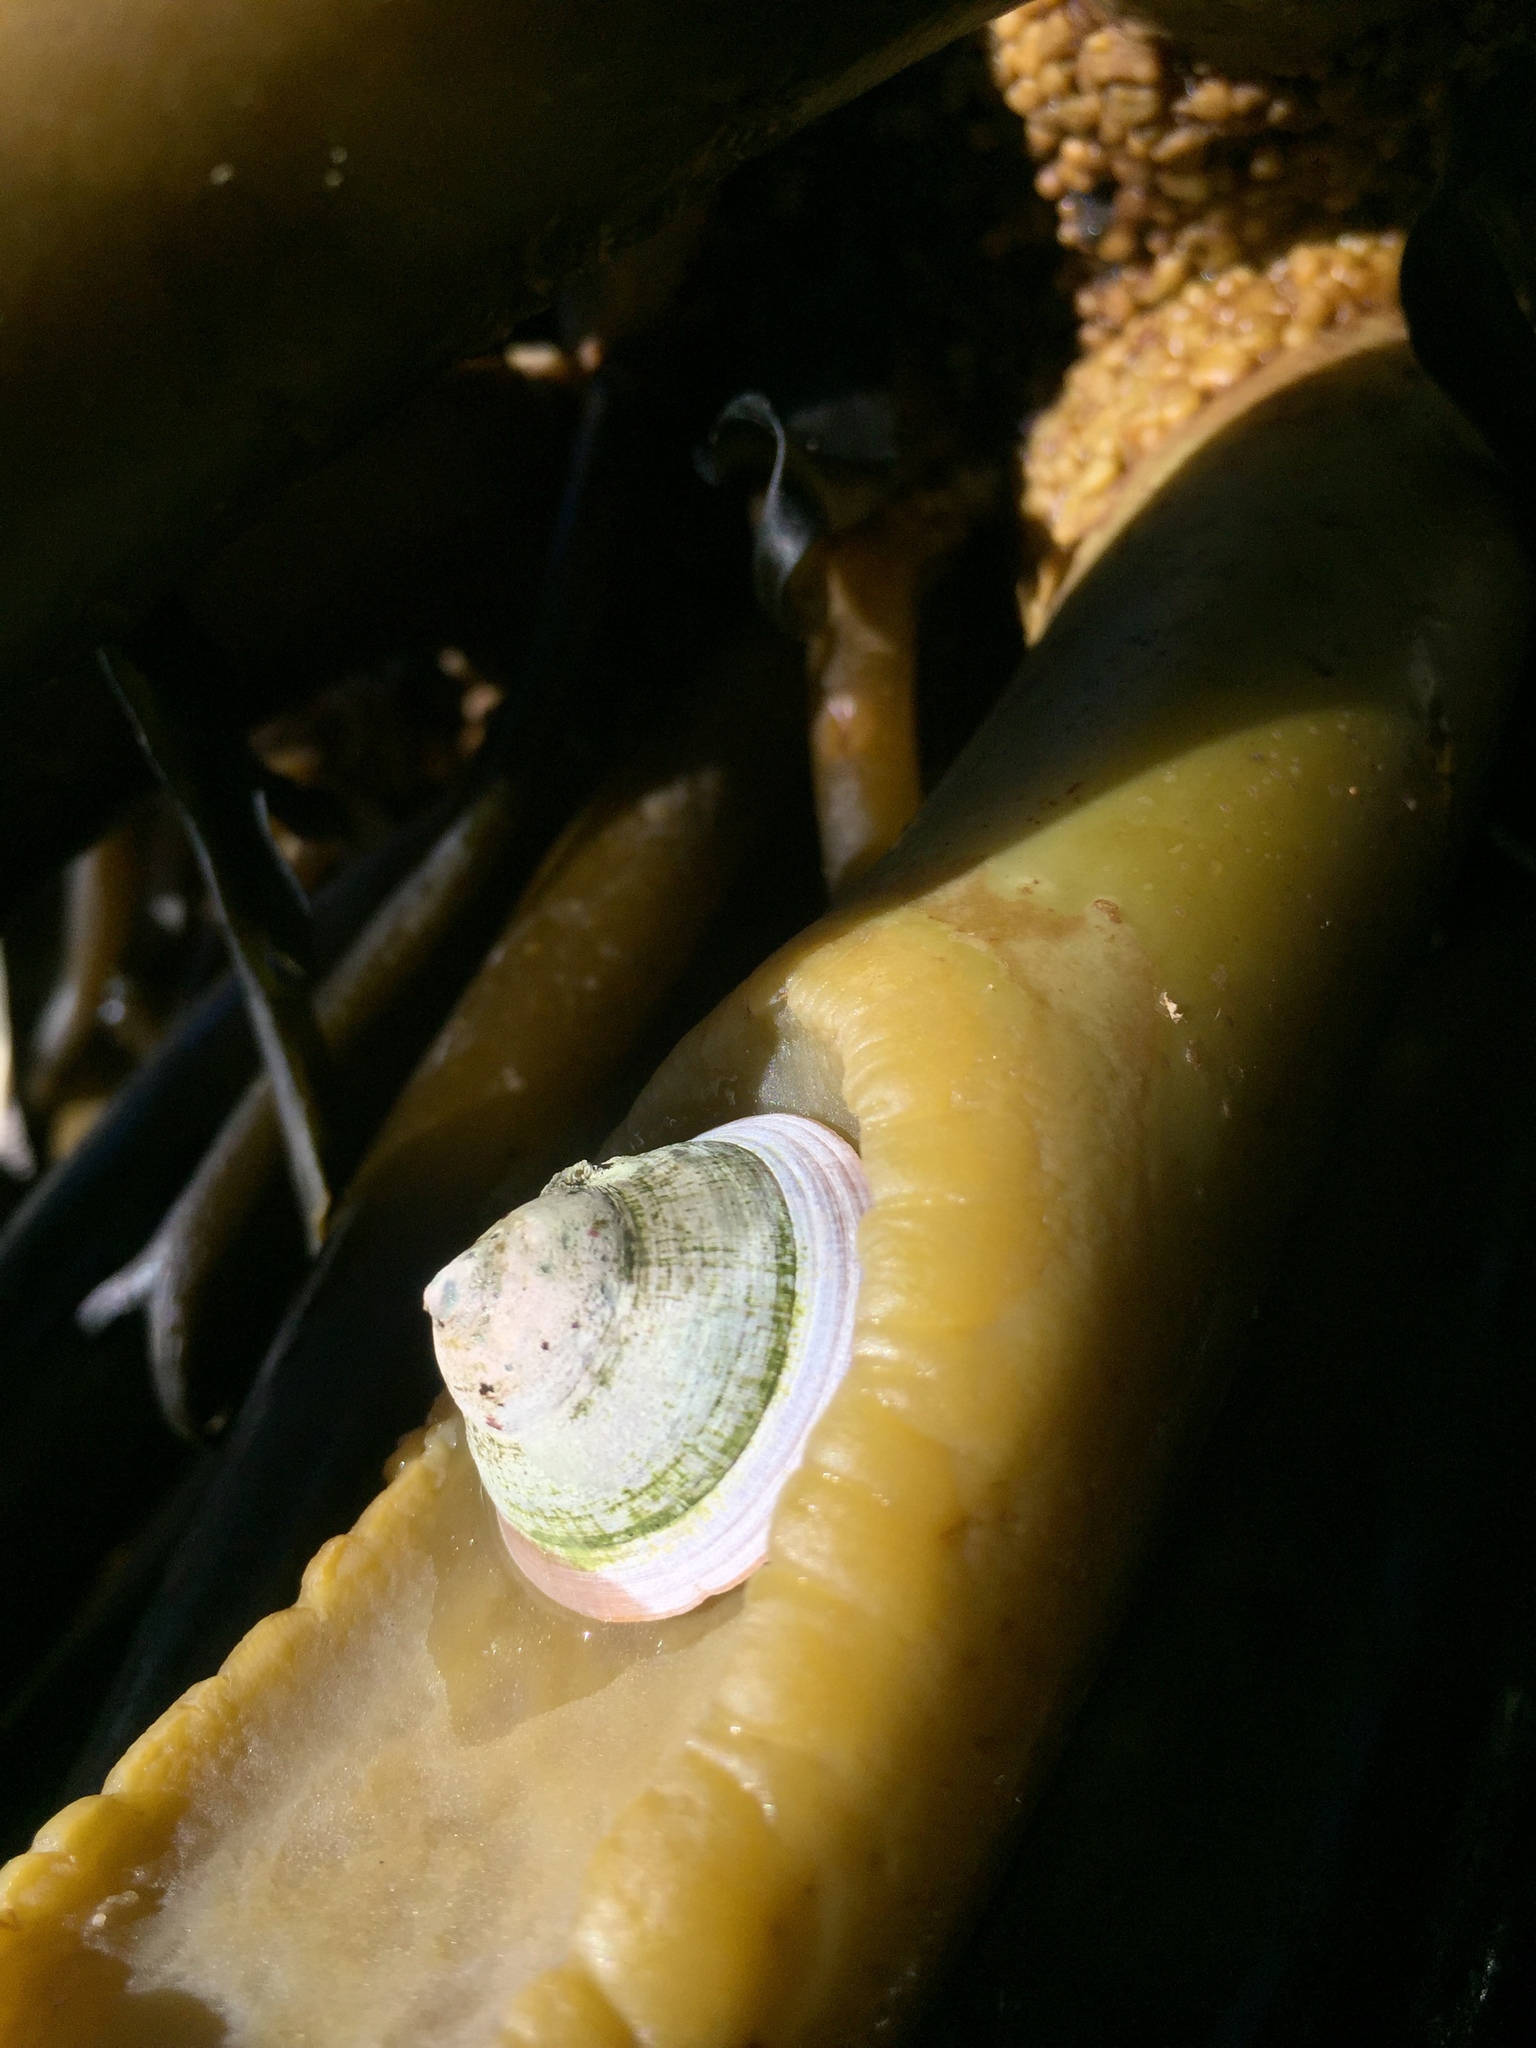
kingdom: Animalia
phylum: Mollusca
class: Gastropoda
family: Lottiidae
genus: Scurria
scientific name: Scurria scurra
